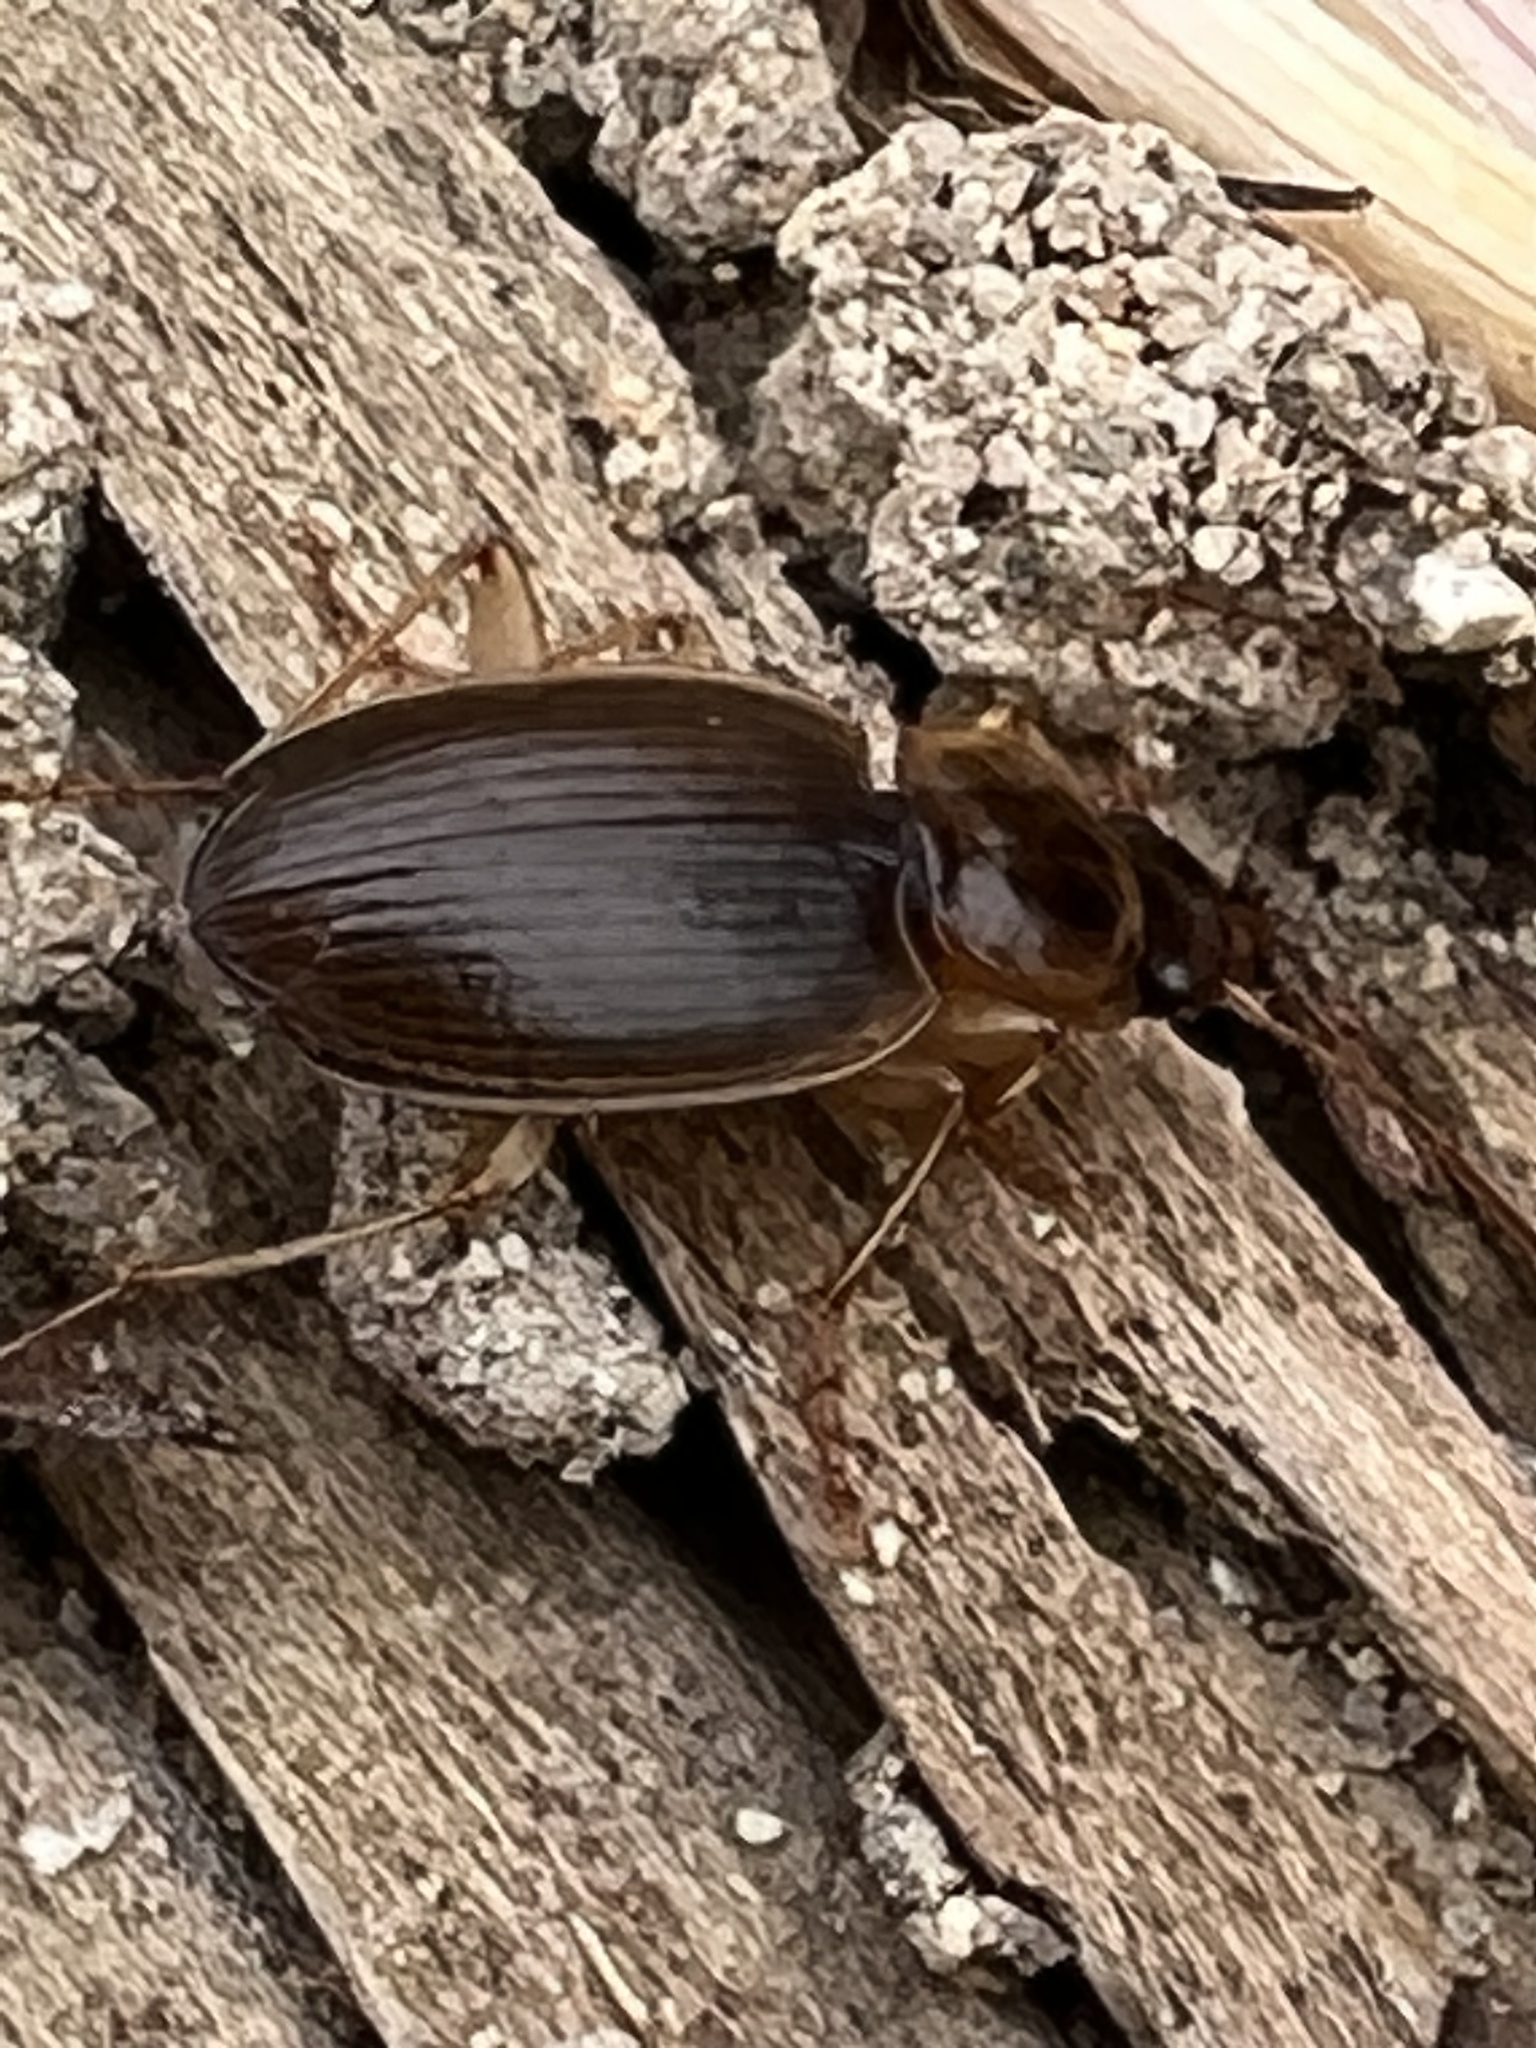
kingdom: Animalia
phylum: Arthropoda
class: Insecta
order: Coleoptera
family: Carabidae
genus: Tanystoma
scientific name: Tanystoma cuyama
